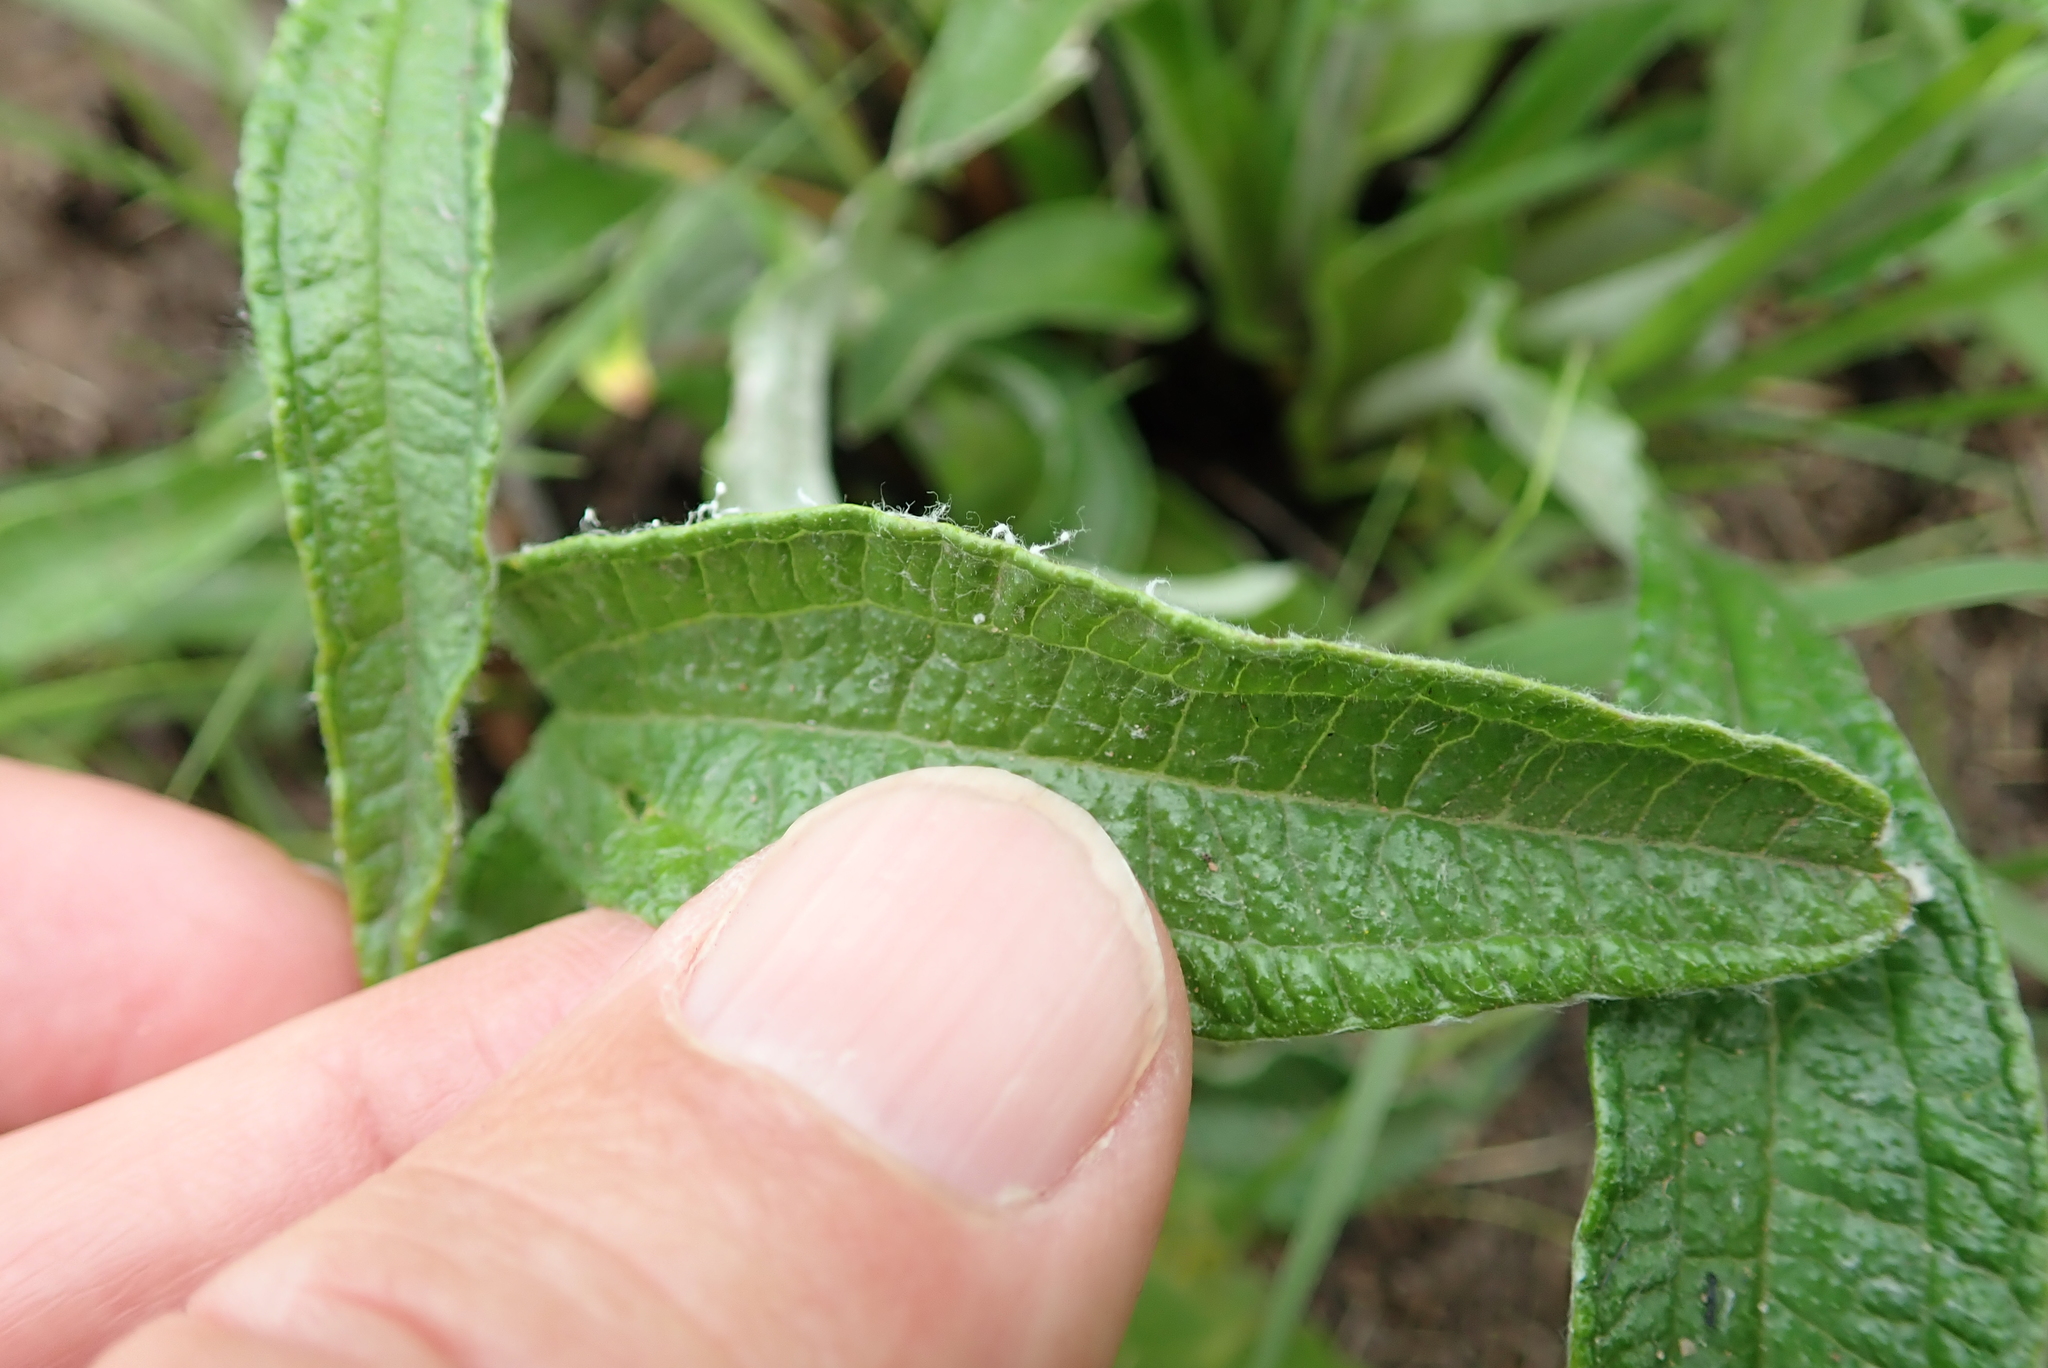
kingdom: Plantae
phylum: Tracheophyta
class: Magnoliopsida
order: Asterales
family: Asteraceae
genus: Helichrysum
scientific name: Helichrysum pallidum
